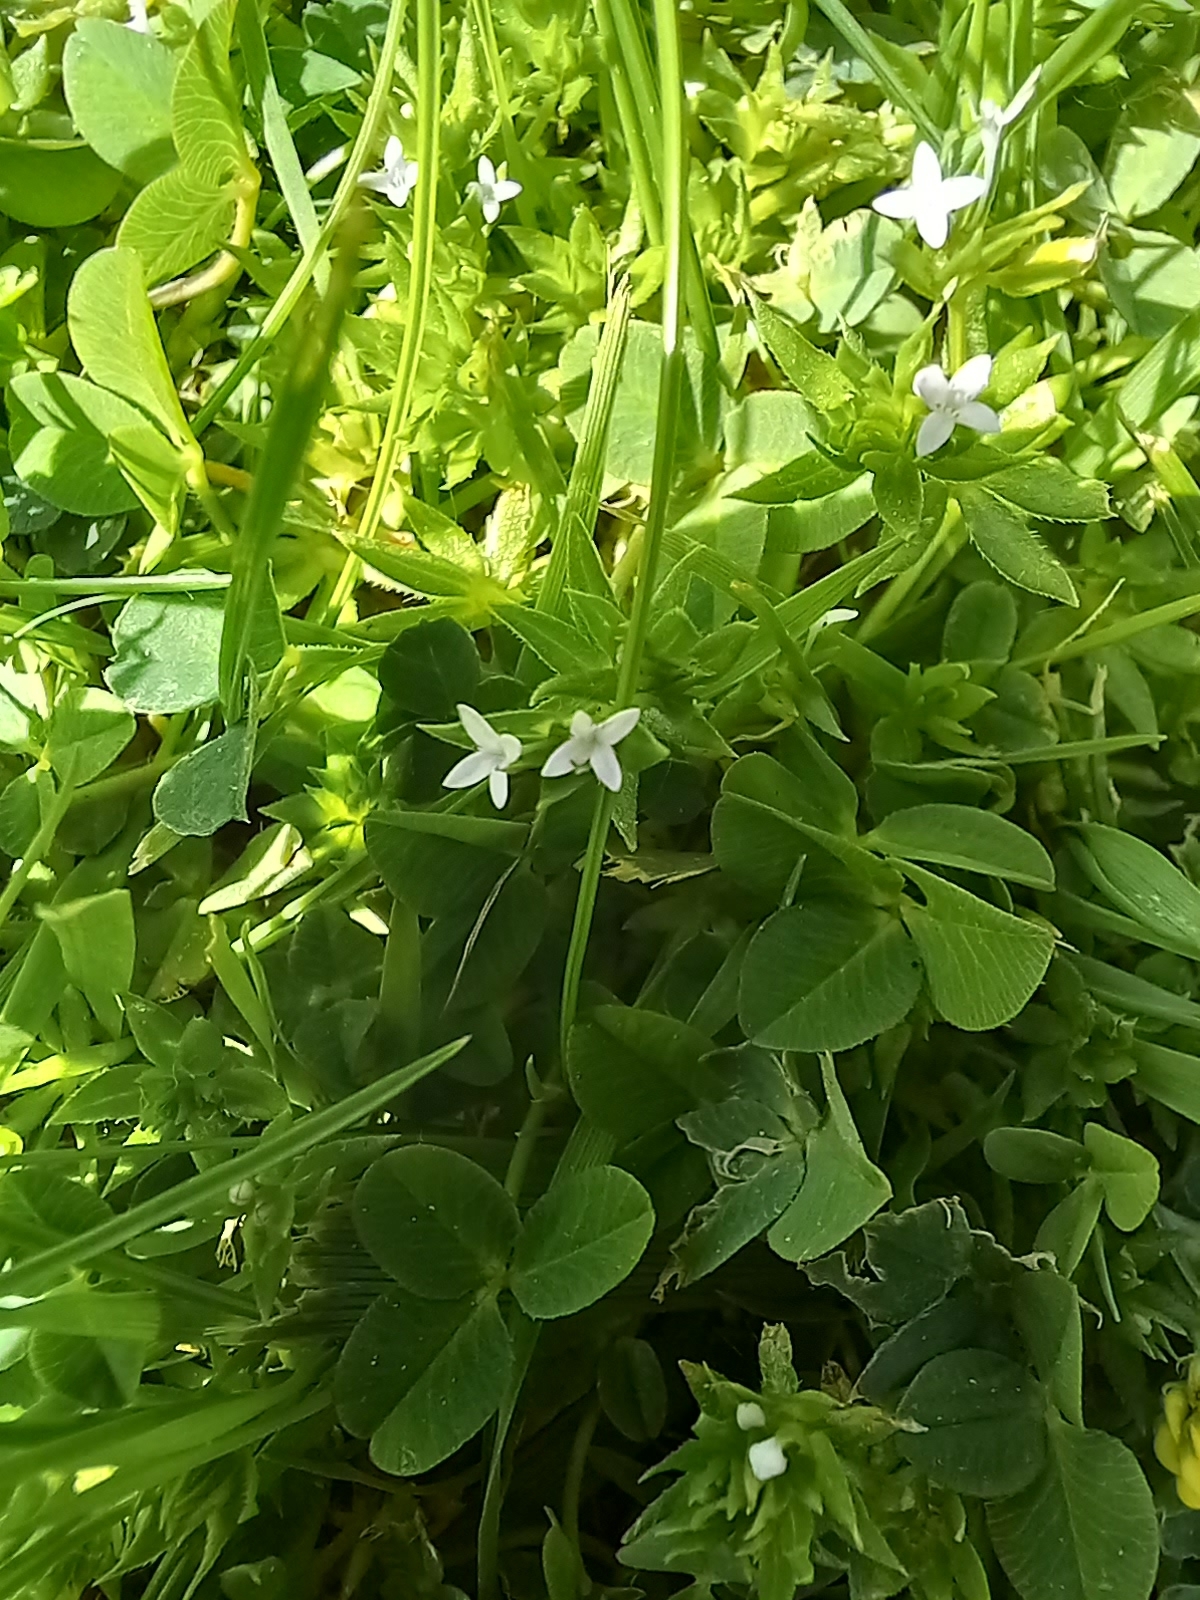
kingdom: Plantae
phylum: Tracheophyta
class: Magnoliopsida
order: Gentianales
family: Rubiaceae
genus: Sherardia
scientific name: Sherardia arvensis
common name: Field madder
